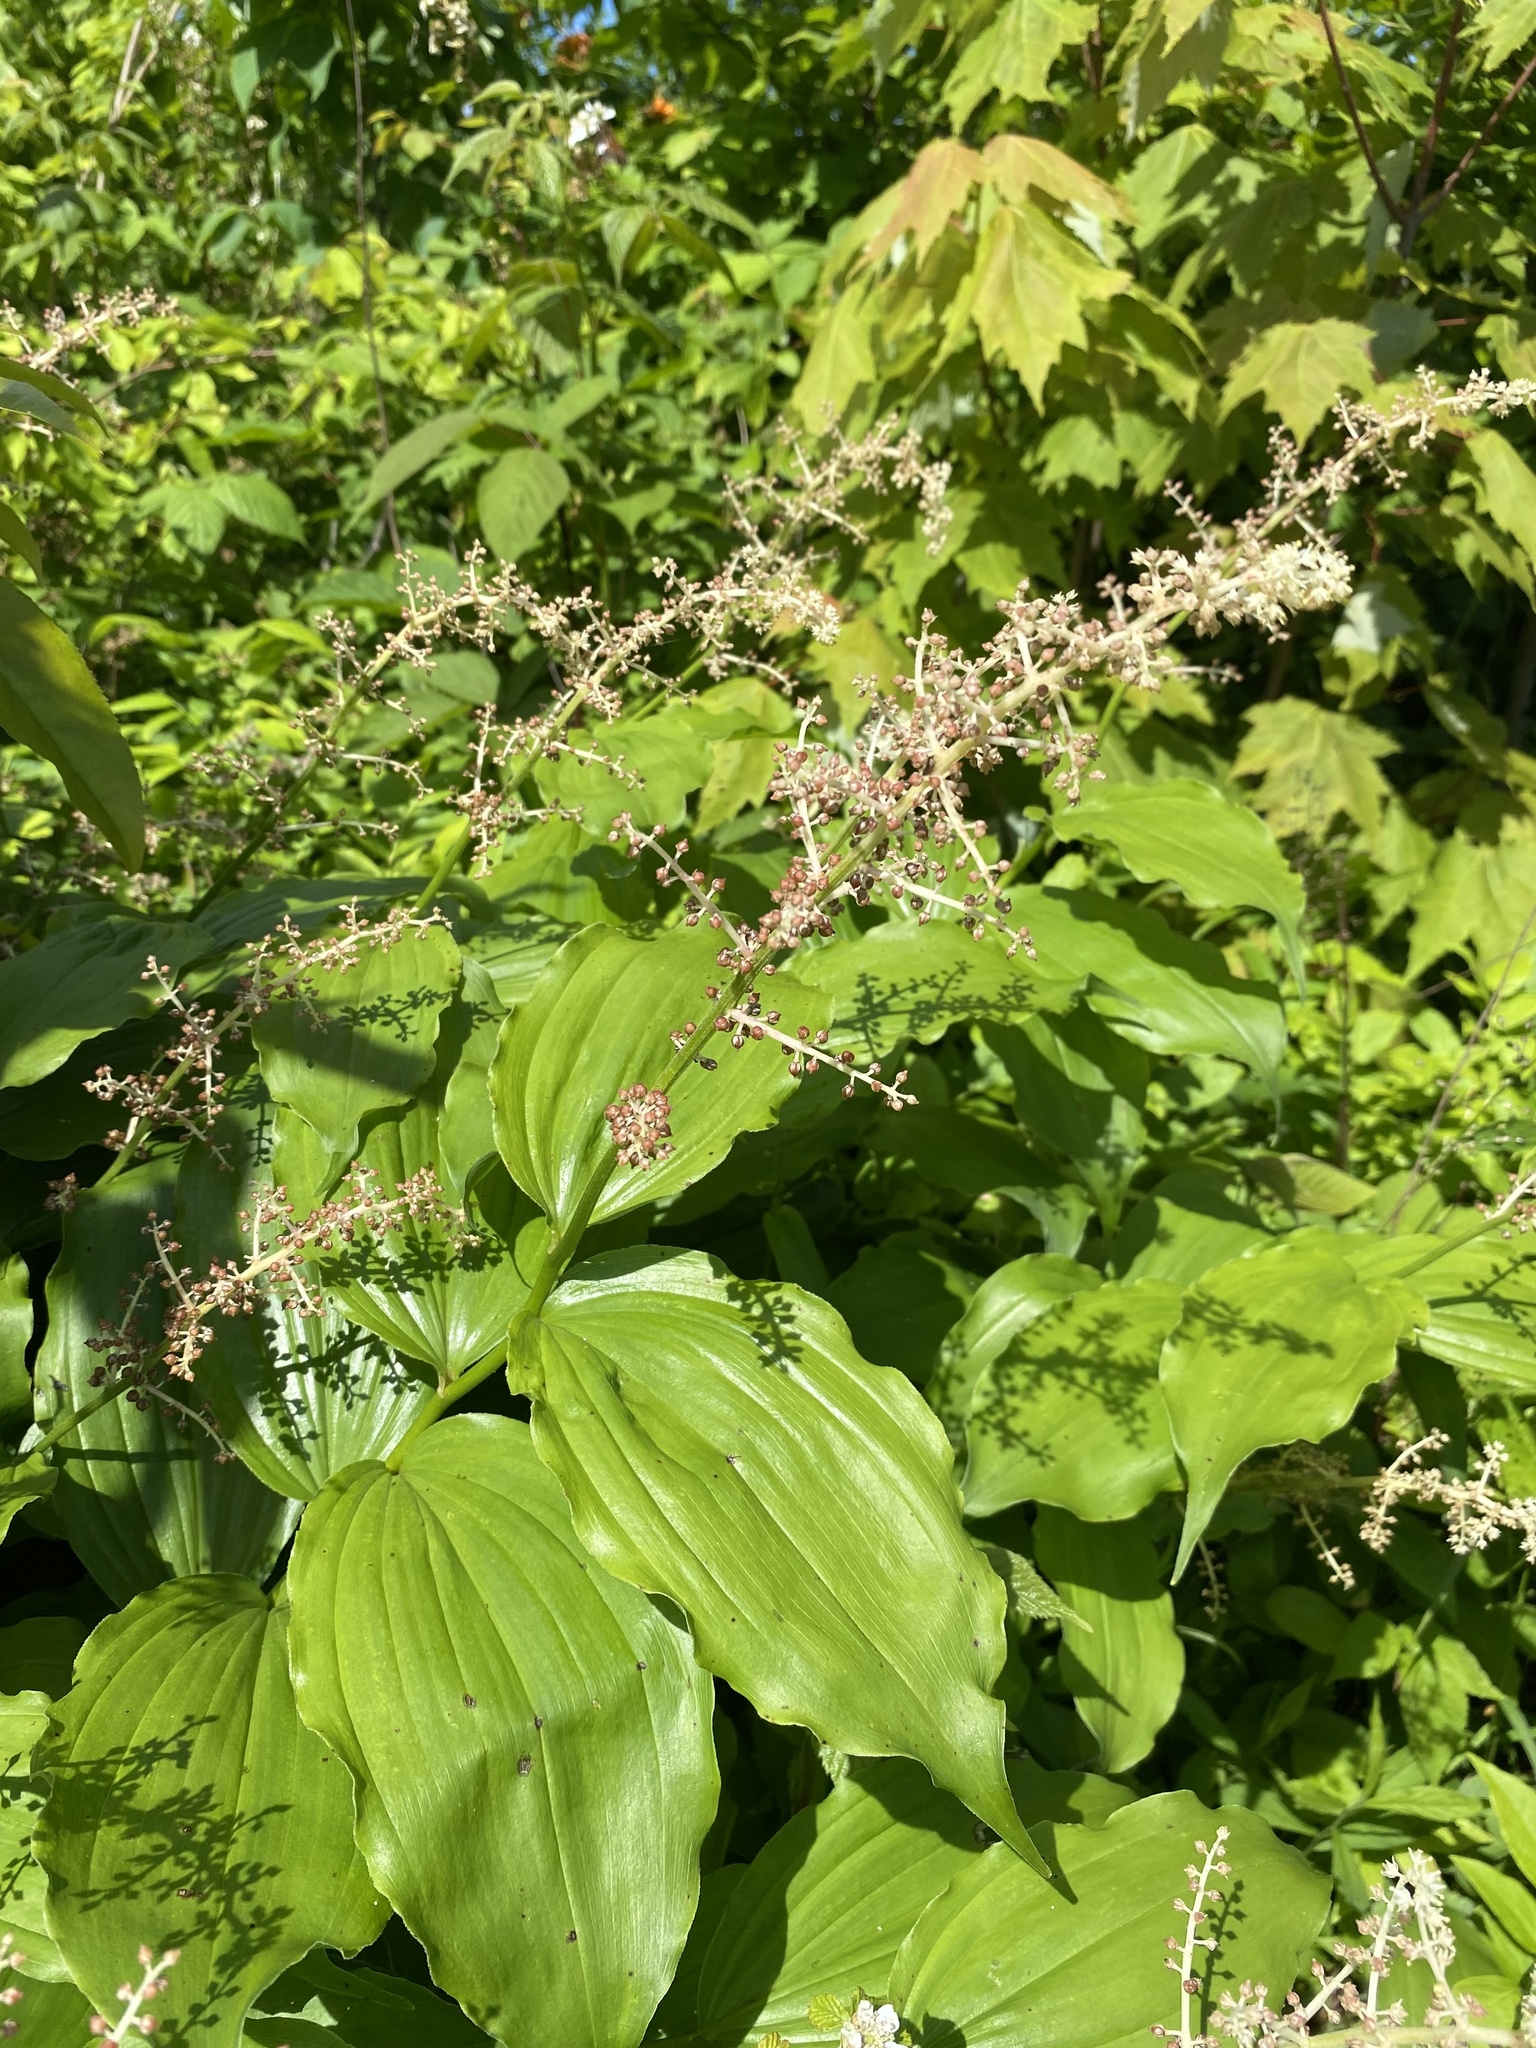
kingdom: Plantae
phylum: Tracheophyta
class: Liliopsida
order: Asparagales
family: Asparagaceae
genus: Maianthemum
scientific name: Maianthemum racemosum
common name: False spikenard
